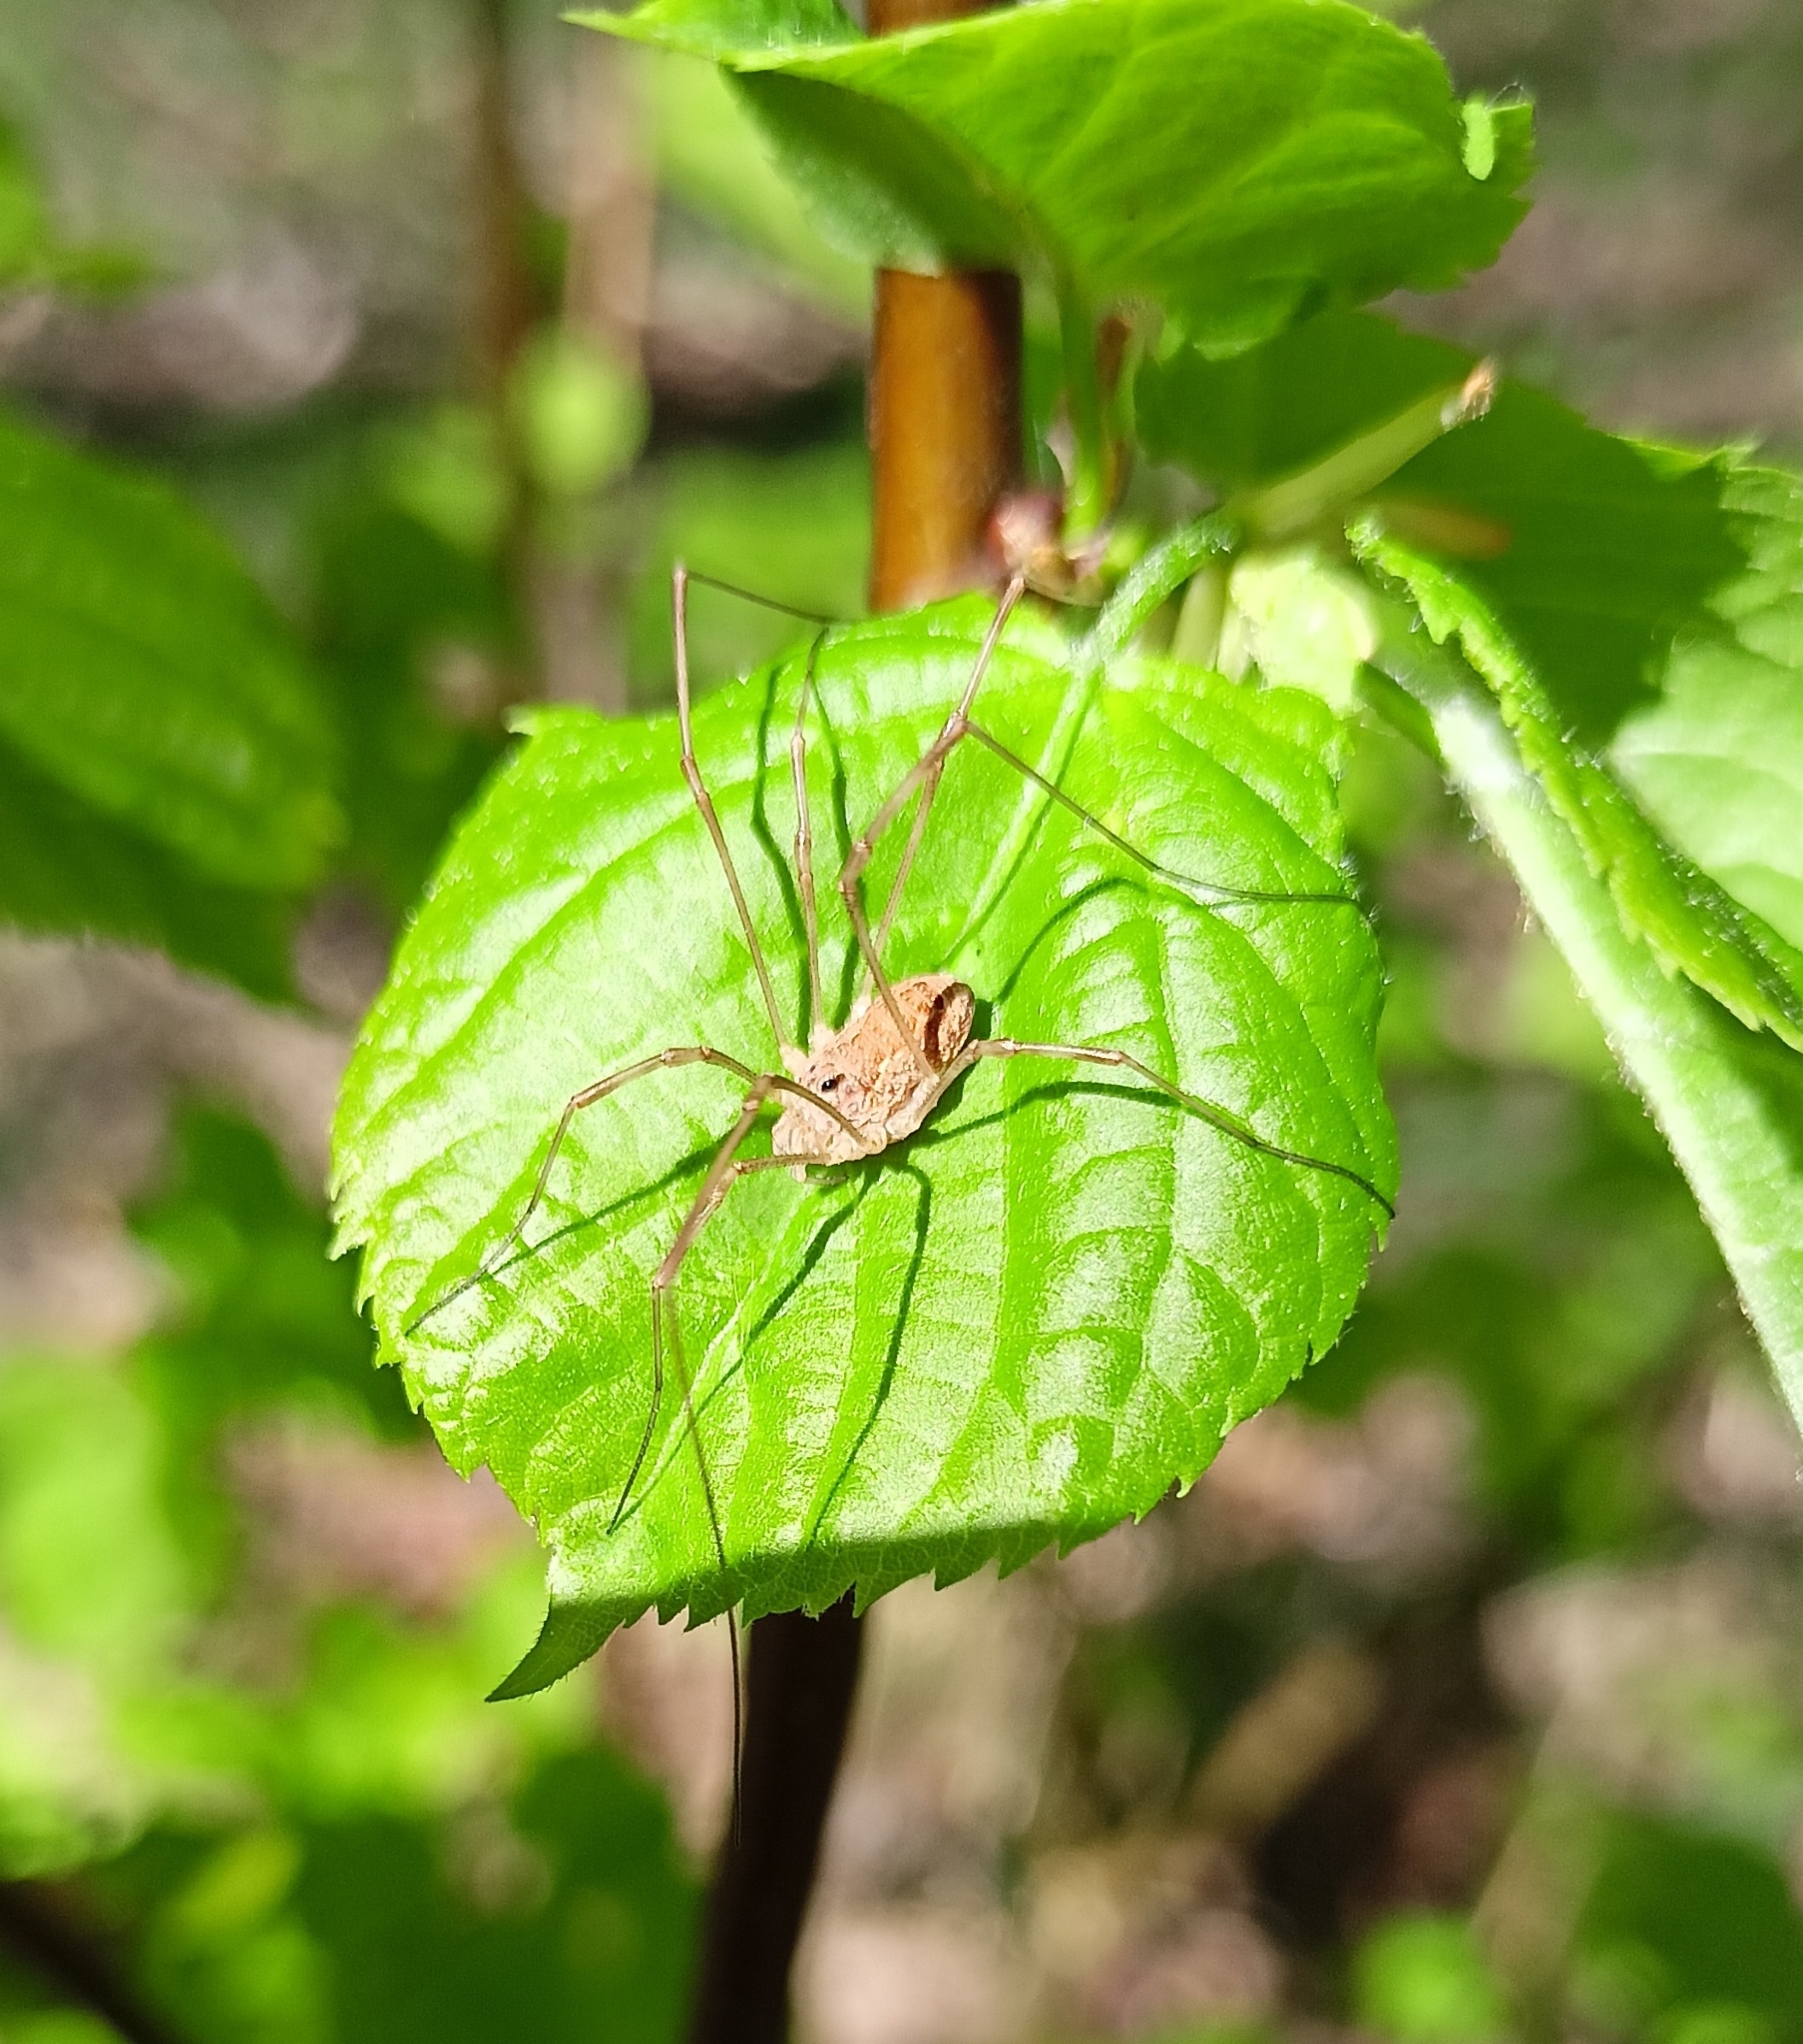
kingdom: Animalia
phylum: Arthropoda
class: Arachnida
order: Opiliones
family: Phalangiidae
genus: Rilaena
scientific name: Rilaena triangularis
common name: Spring harvestman
